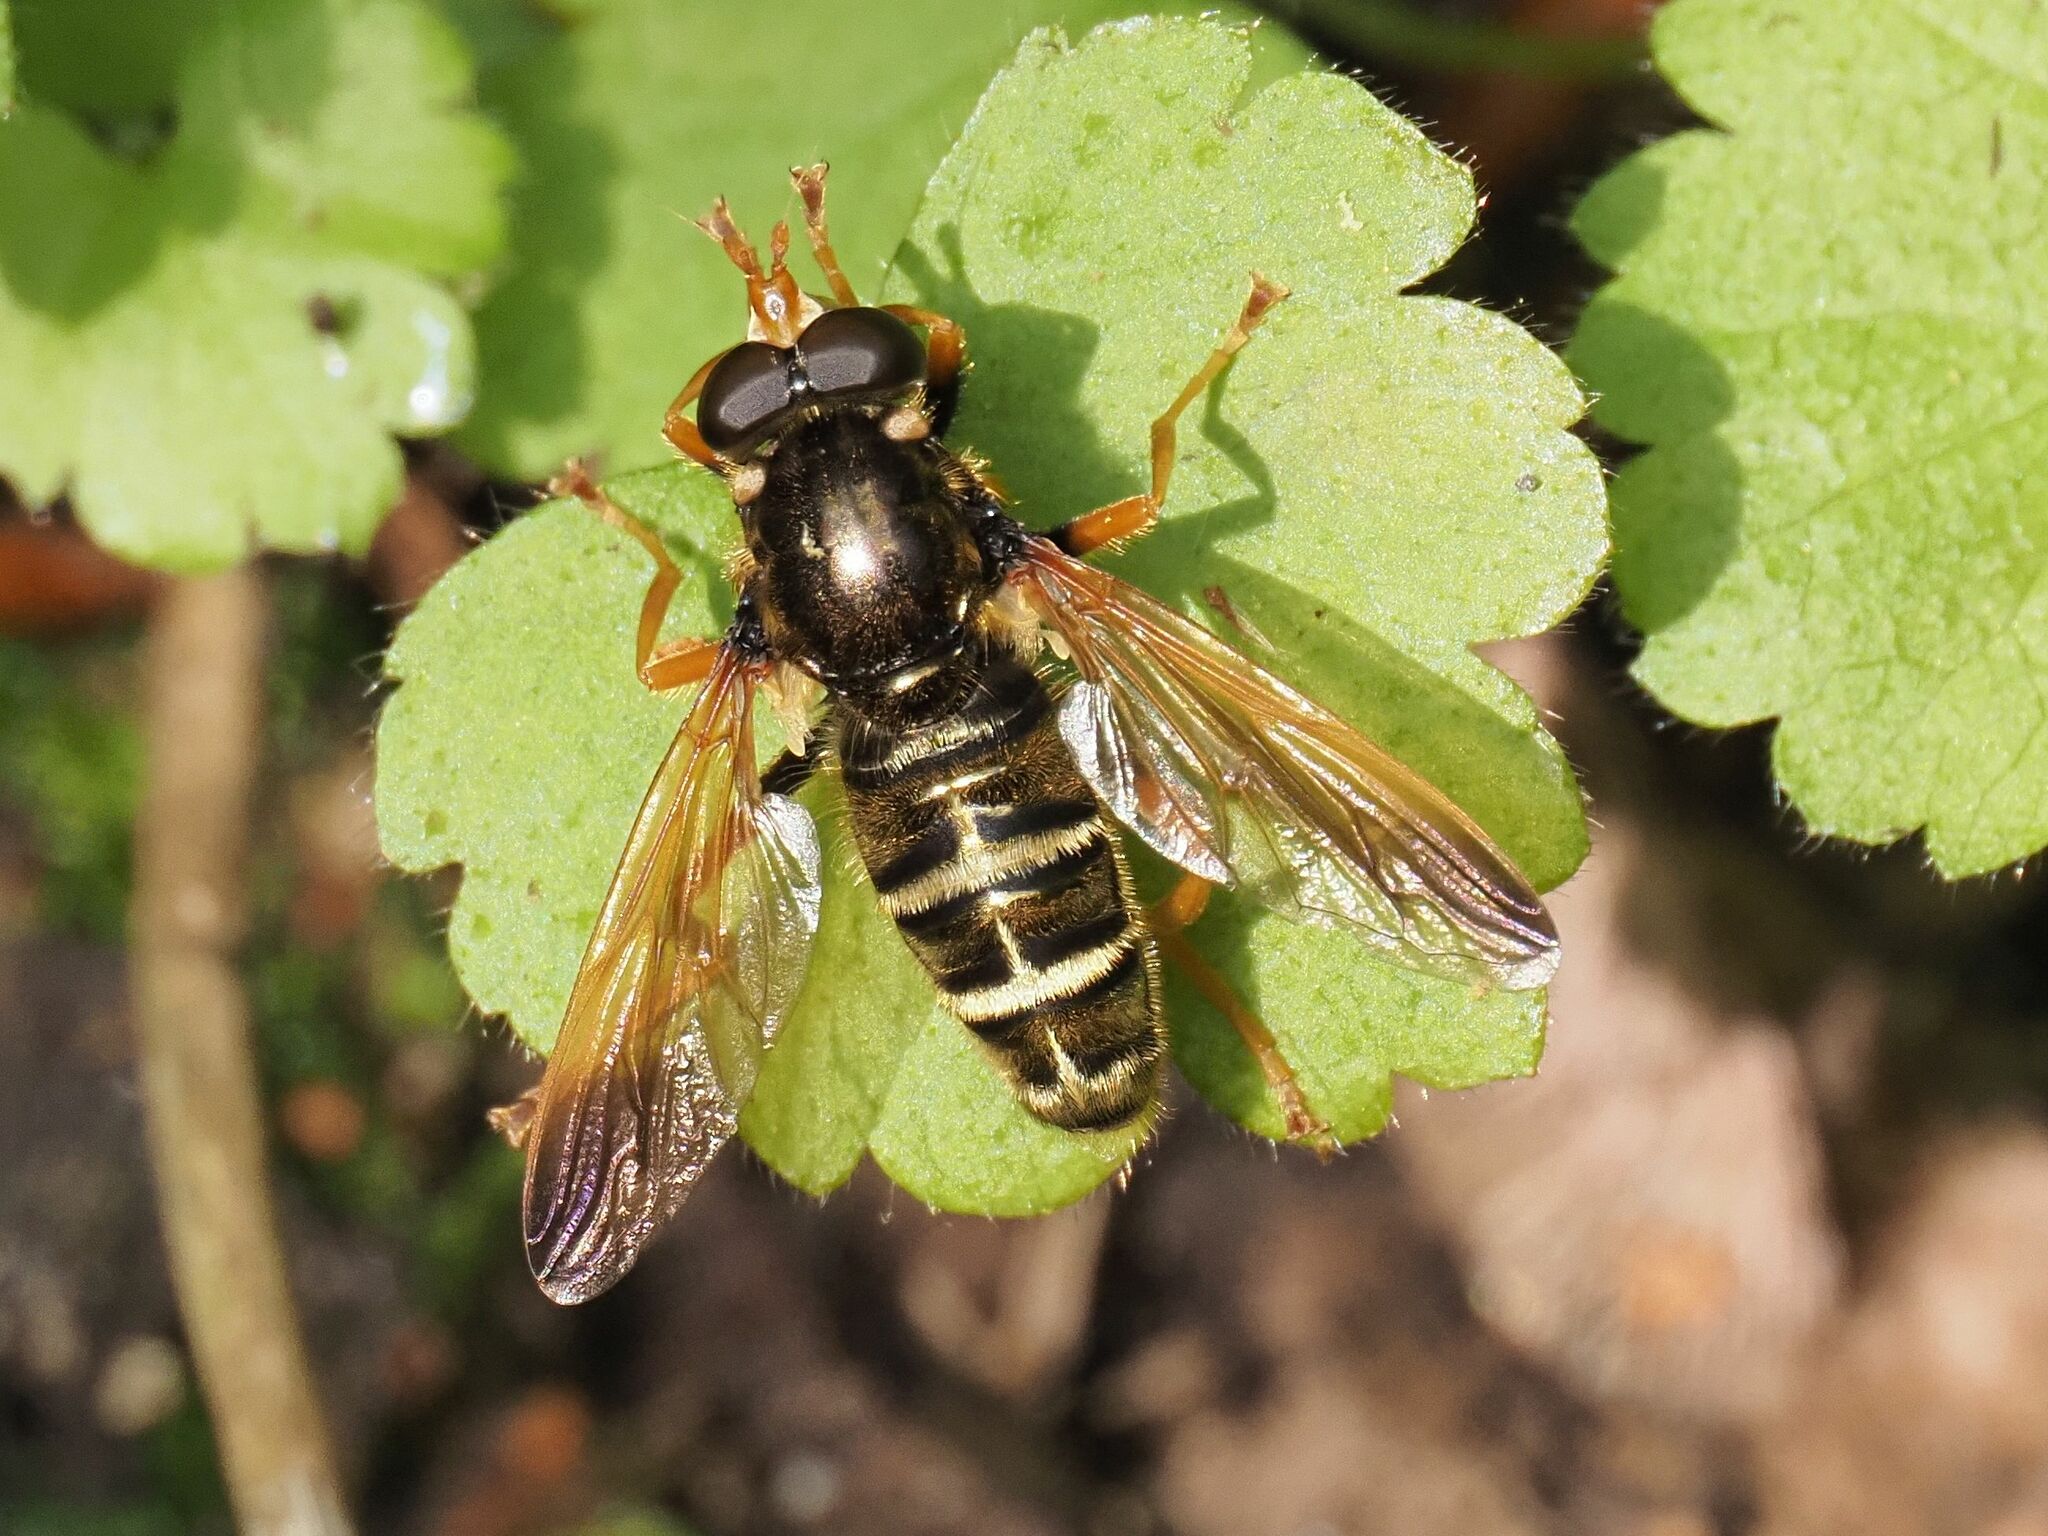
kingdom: Animalia
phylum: Arthropoda
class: Insecta
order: Diptera
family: Syrphidae
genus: Caliprobola
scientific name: Caliprobola speciosa
